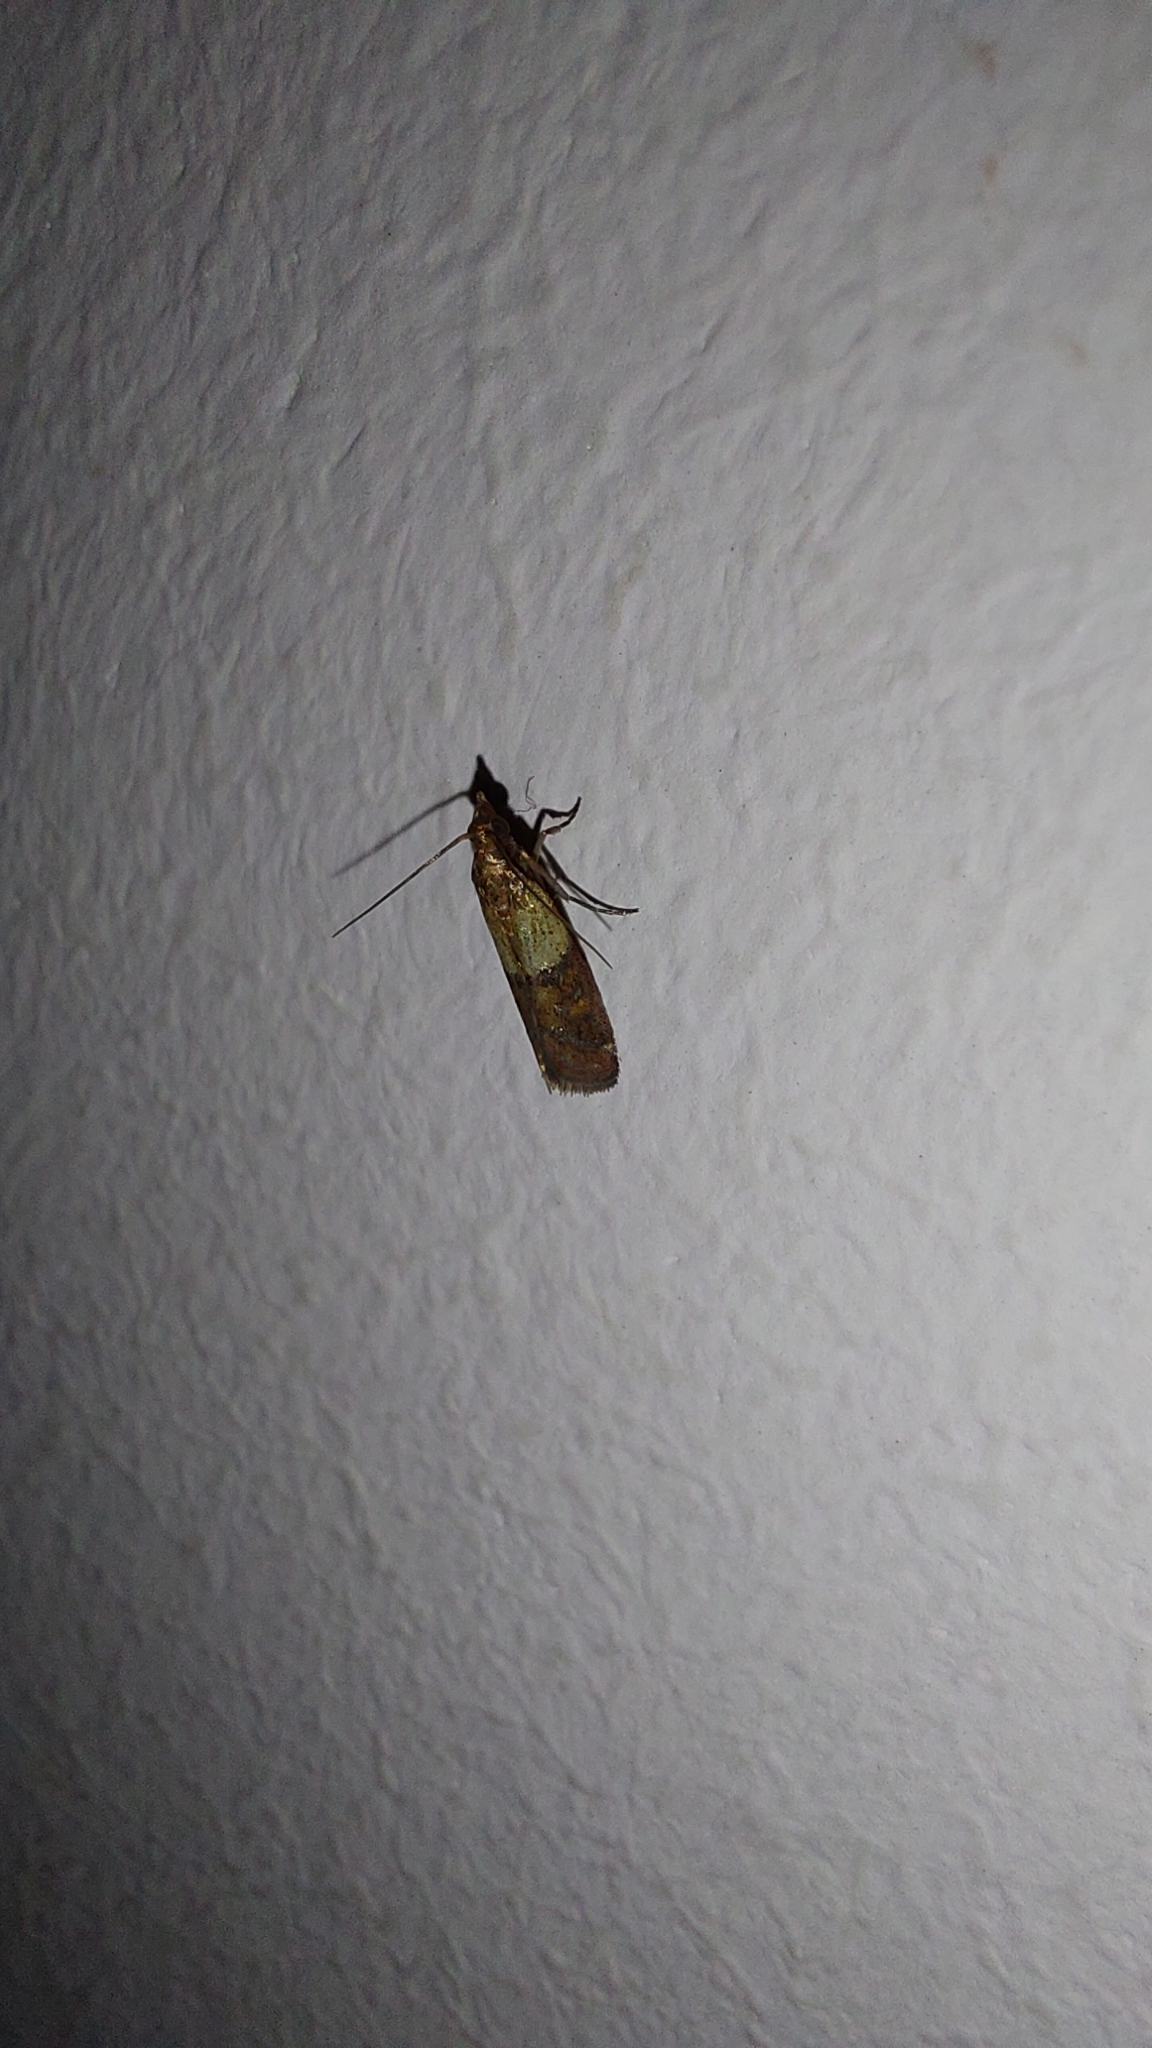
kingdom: Animalia
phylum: Arthropoda
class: Insecta
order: Lepidoptera
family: Pyralidae
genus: Plodia
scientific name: Plodia interpunctella
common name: Indian meal moth
